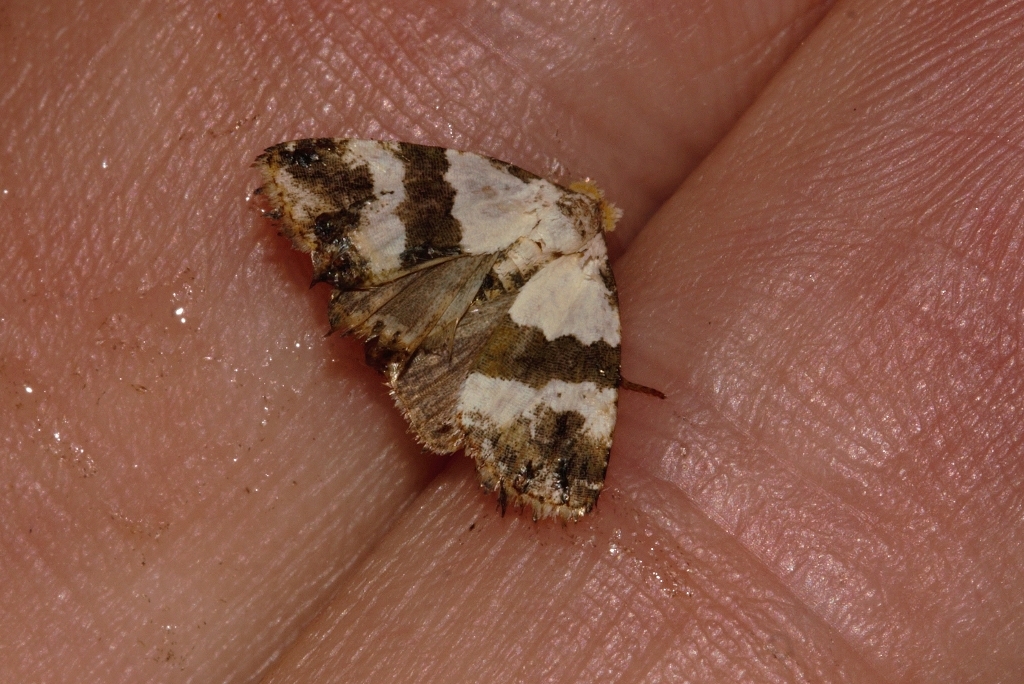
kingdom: Animalia
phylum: Arthropoda
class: Insecta
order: Lepidoptera
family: Noctuidae
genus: Lithacodia
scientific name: Lithacodia blandula
